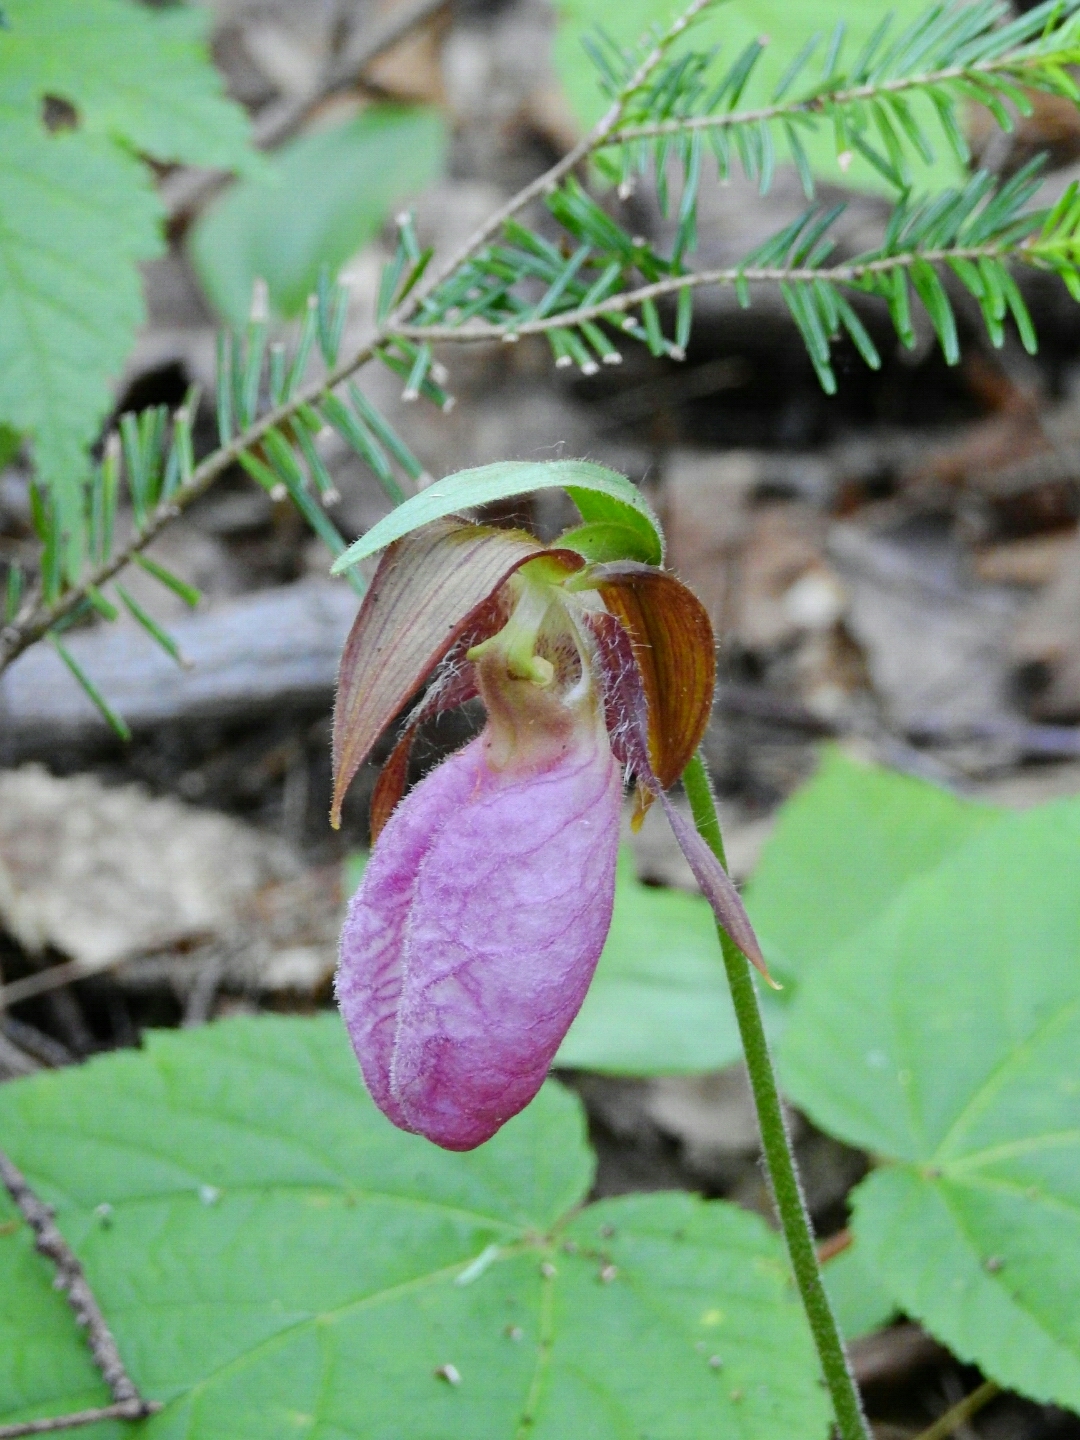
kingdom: Plantae
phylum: Tracheophyta
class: Liliopsida
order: Asparagales
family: Orchidaceae
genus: Cypripedium
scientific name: Cypripedium acaule
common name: Pink lady's-slipper
